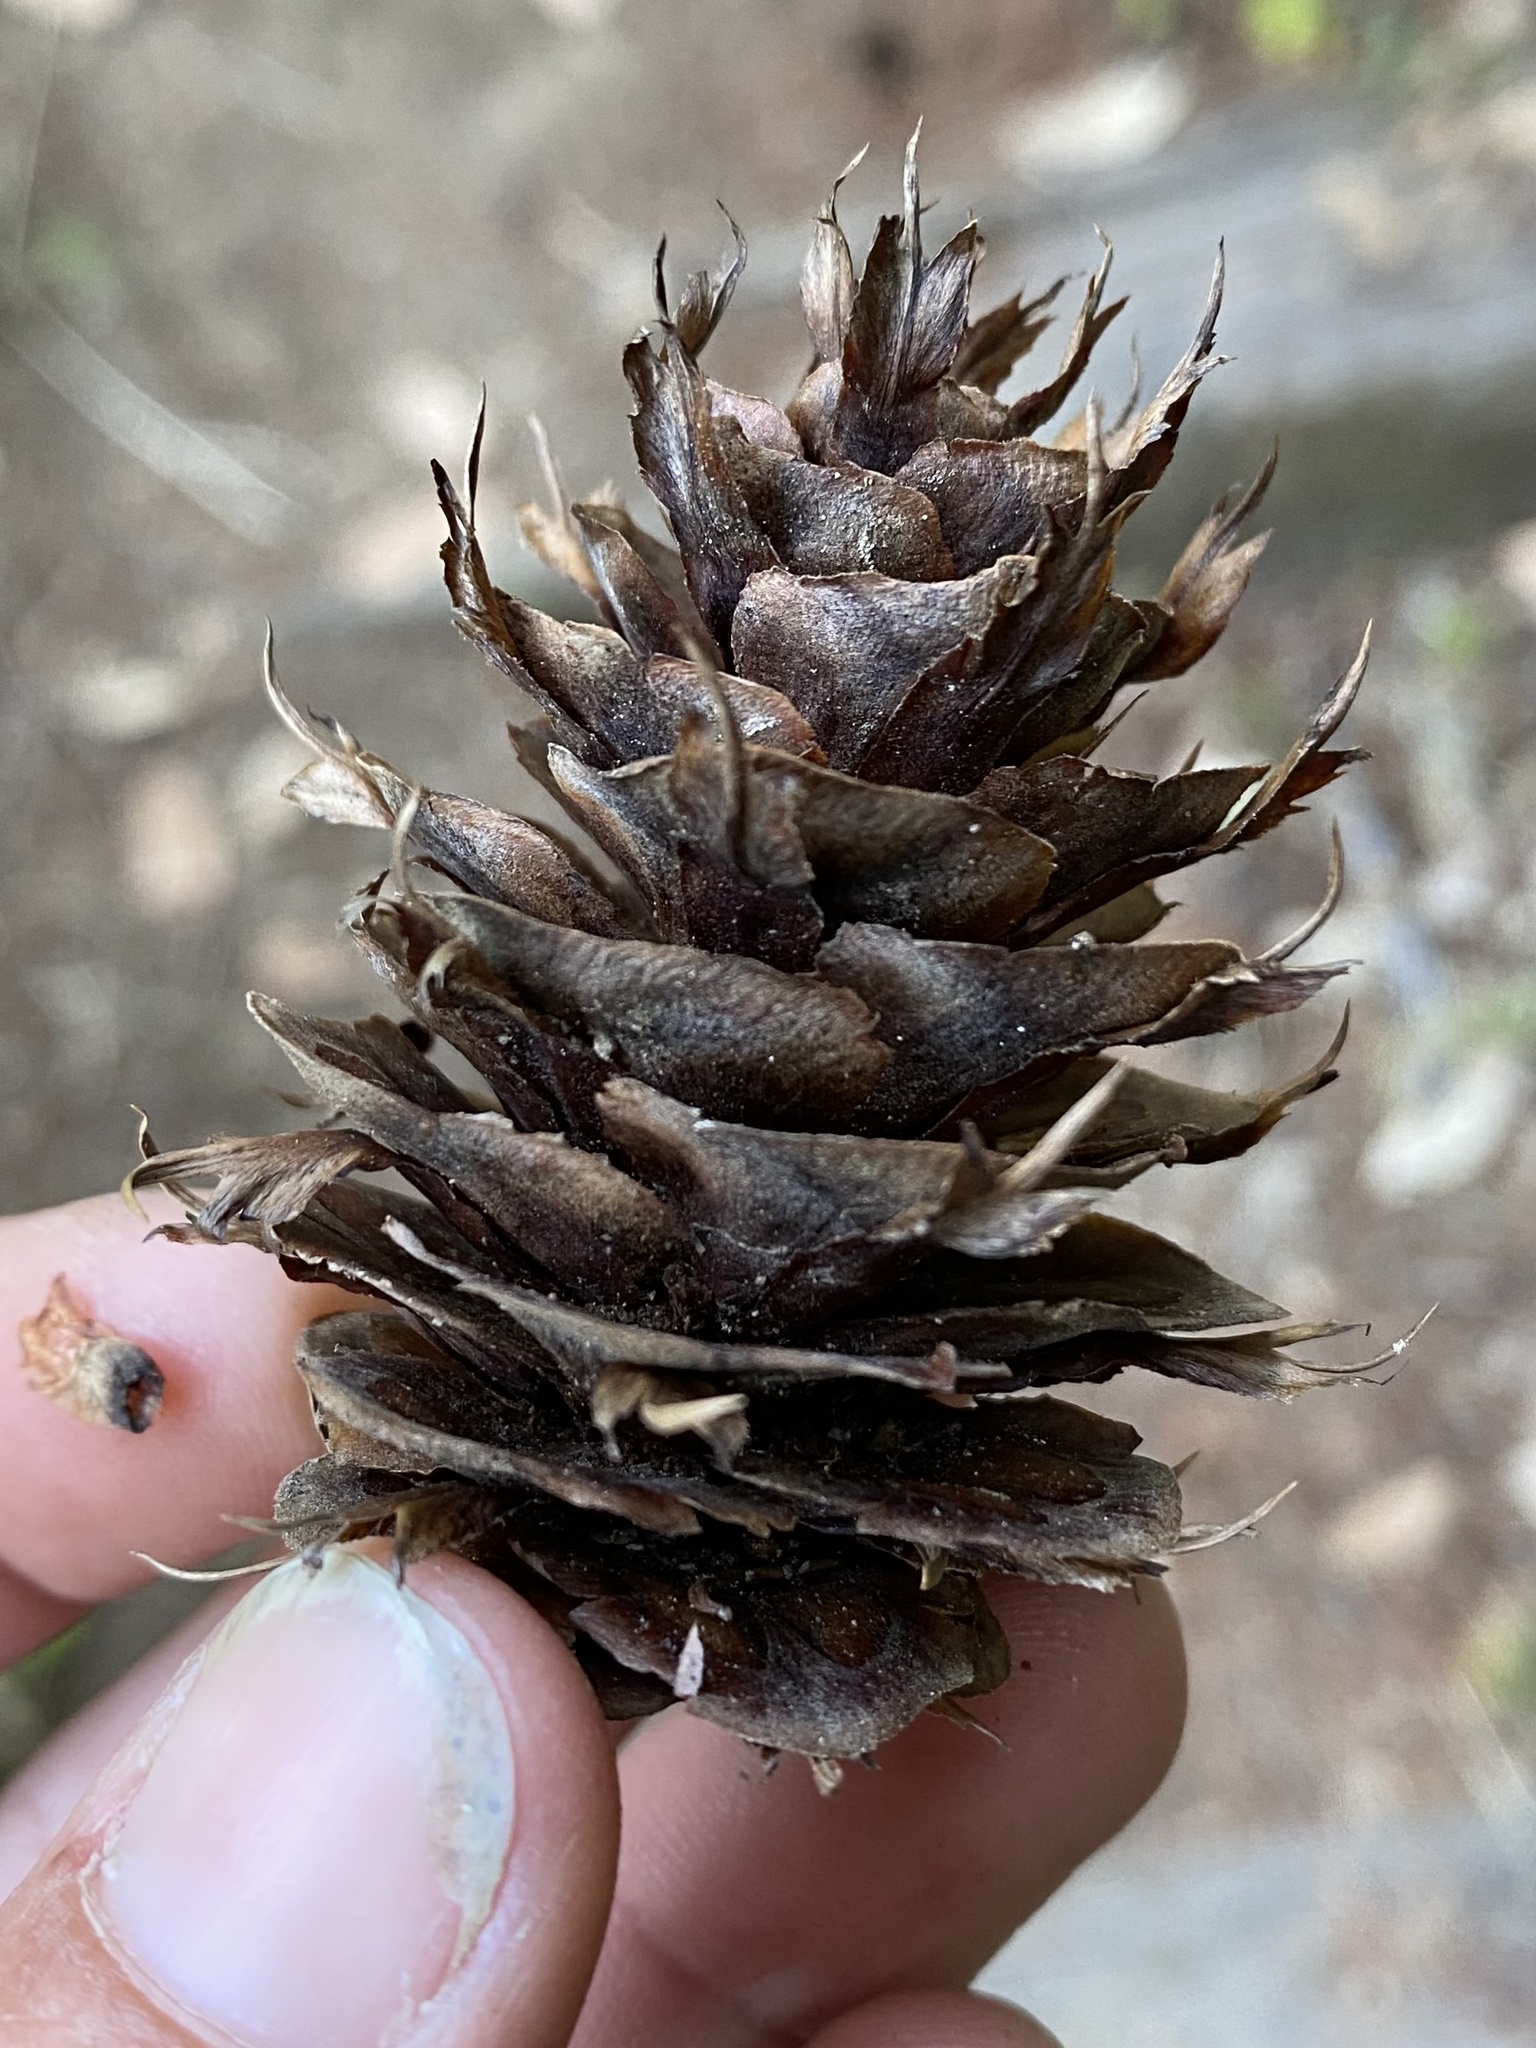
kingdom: Plantae
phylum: Tracheophyta
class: Pinopsida
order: Pinales
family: Pinaceae
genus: Pseudotsuga
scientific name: Pseudotsuga menziesii
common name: Douglas fir
